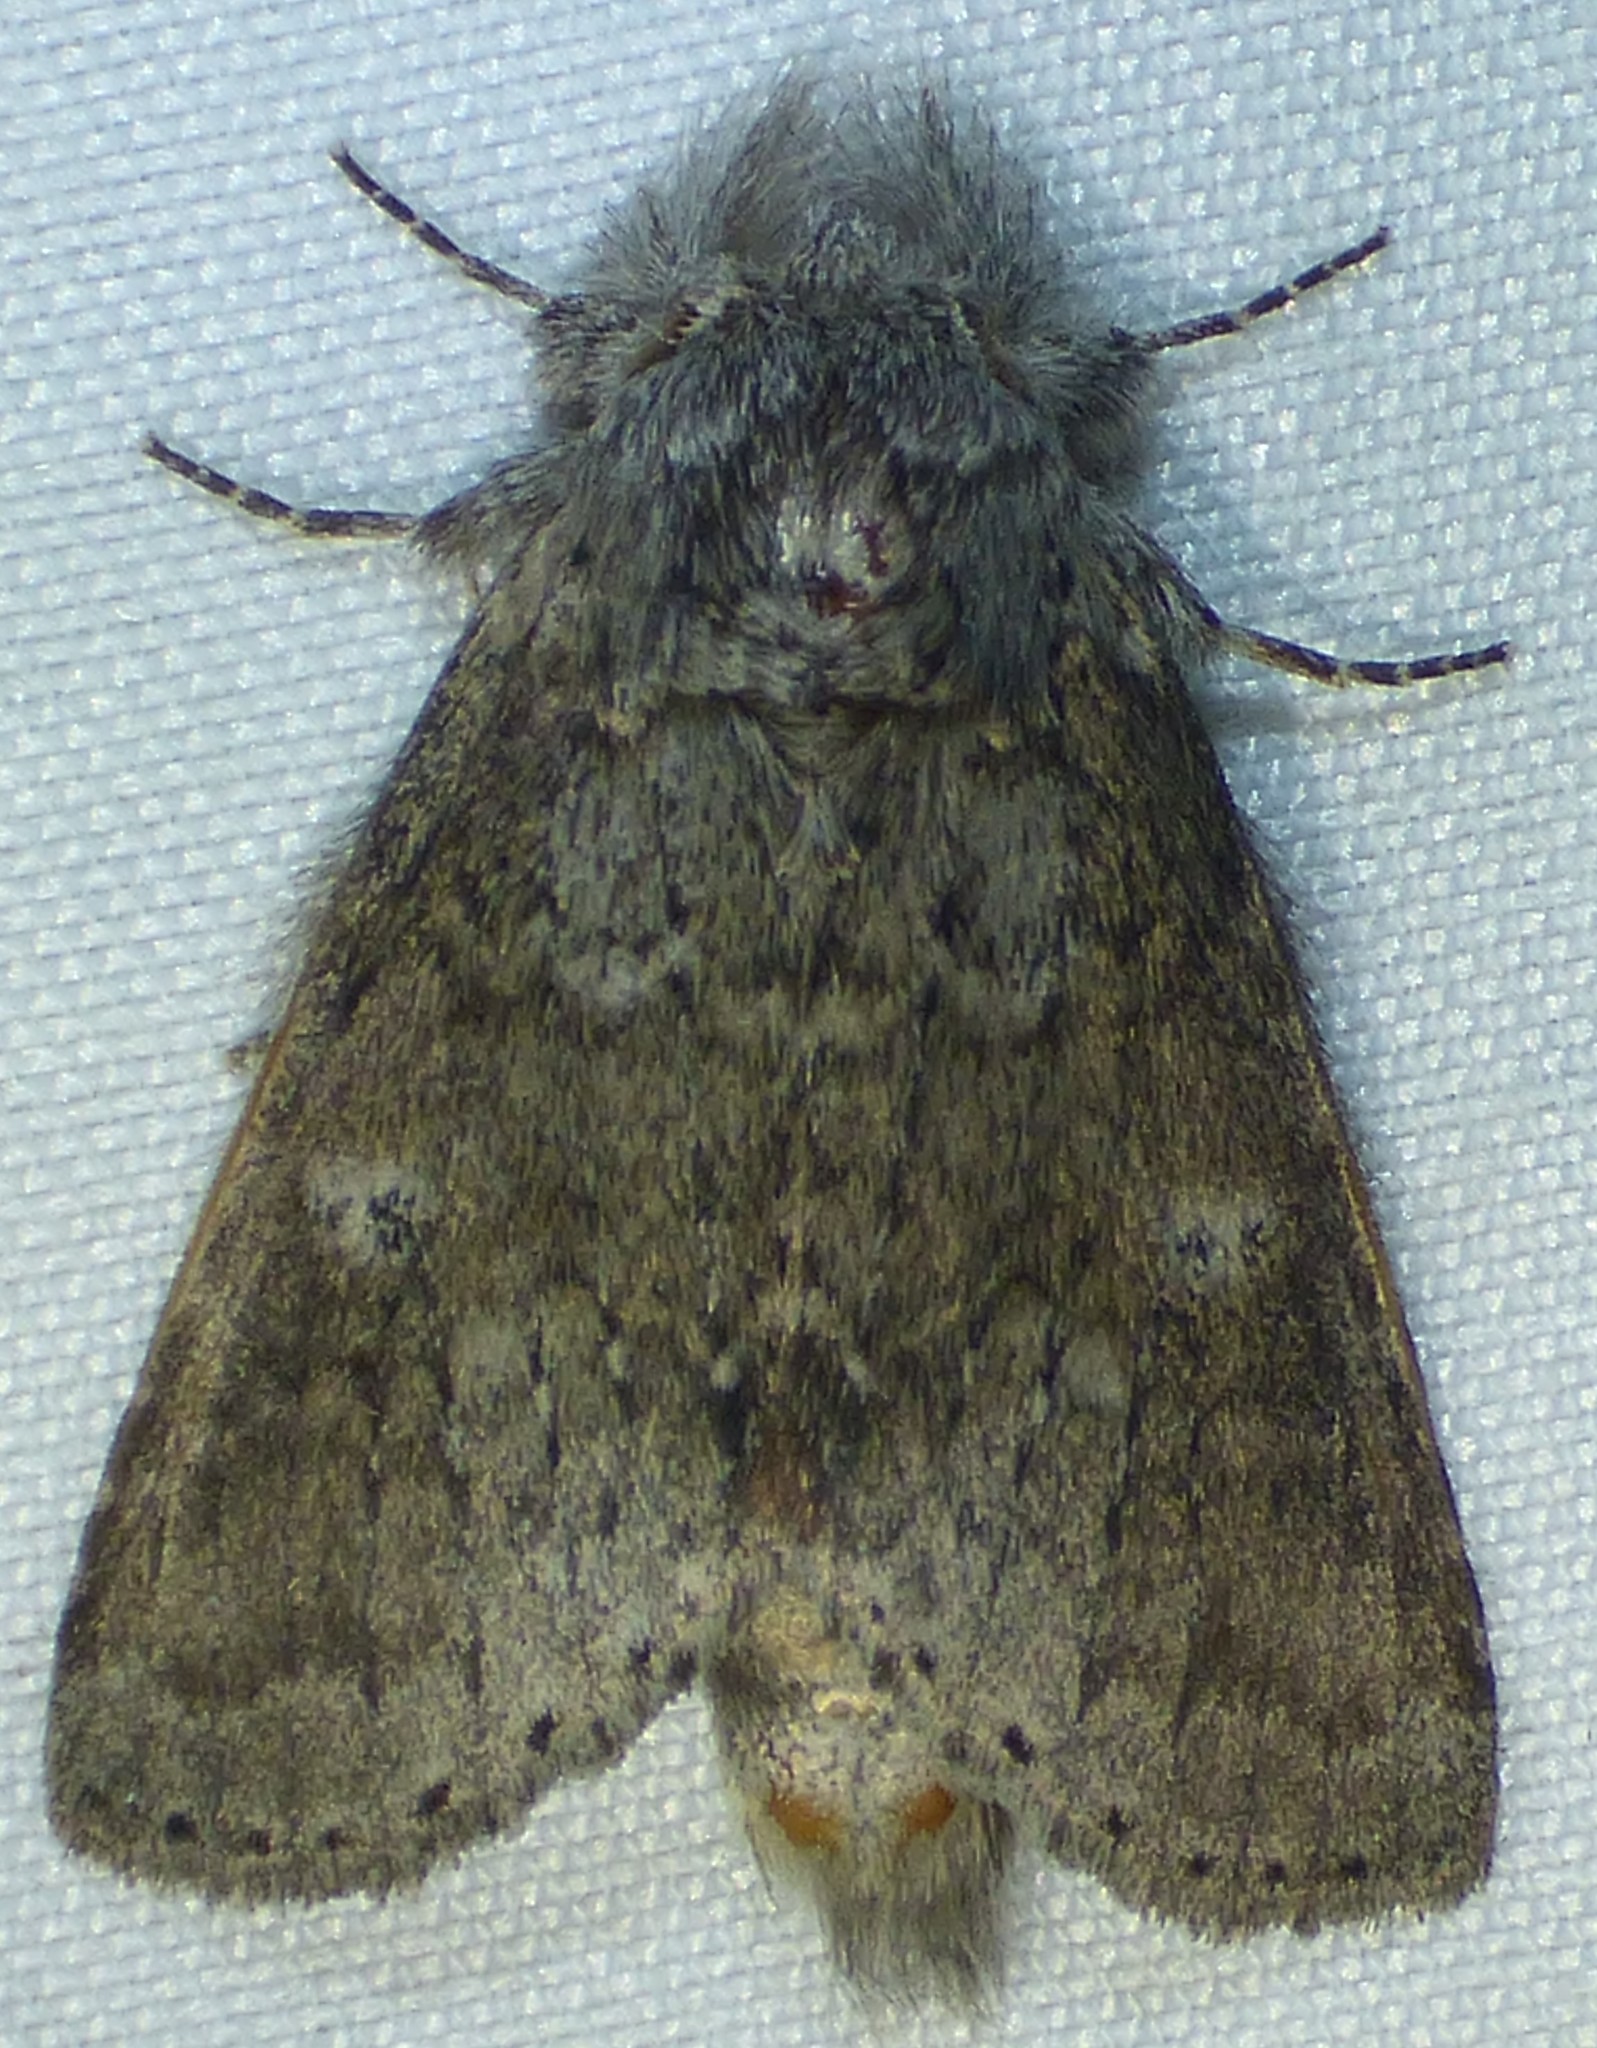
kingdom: Animalia
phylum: Arthropoda
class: Insecta
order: Lepidoptera
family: Notodontidae
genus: Lochmaeus
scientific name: Lochmaeus manteo
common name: Variable oakleaf caterpillar moth
